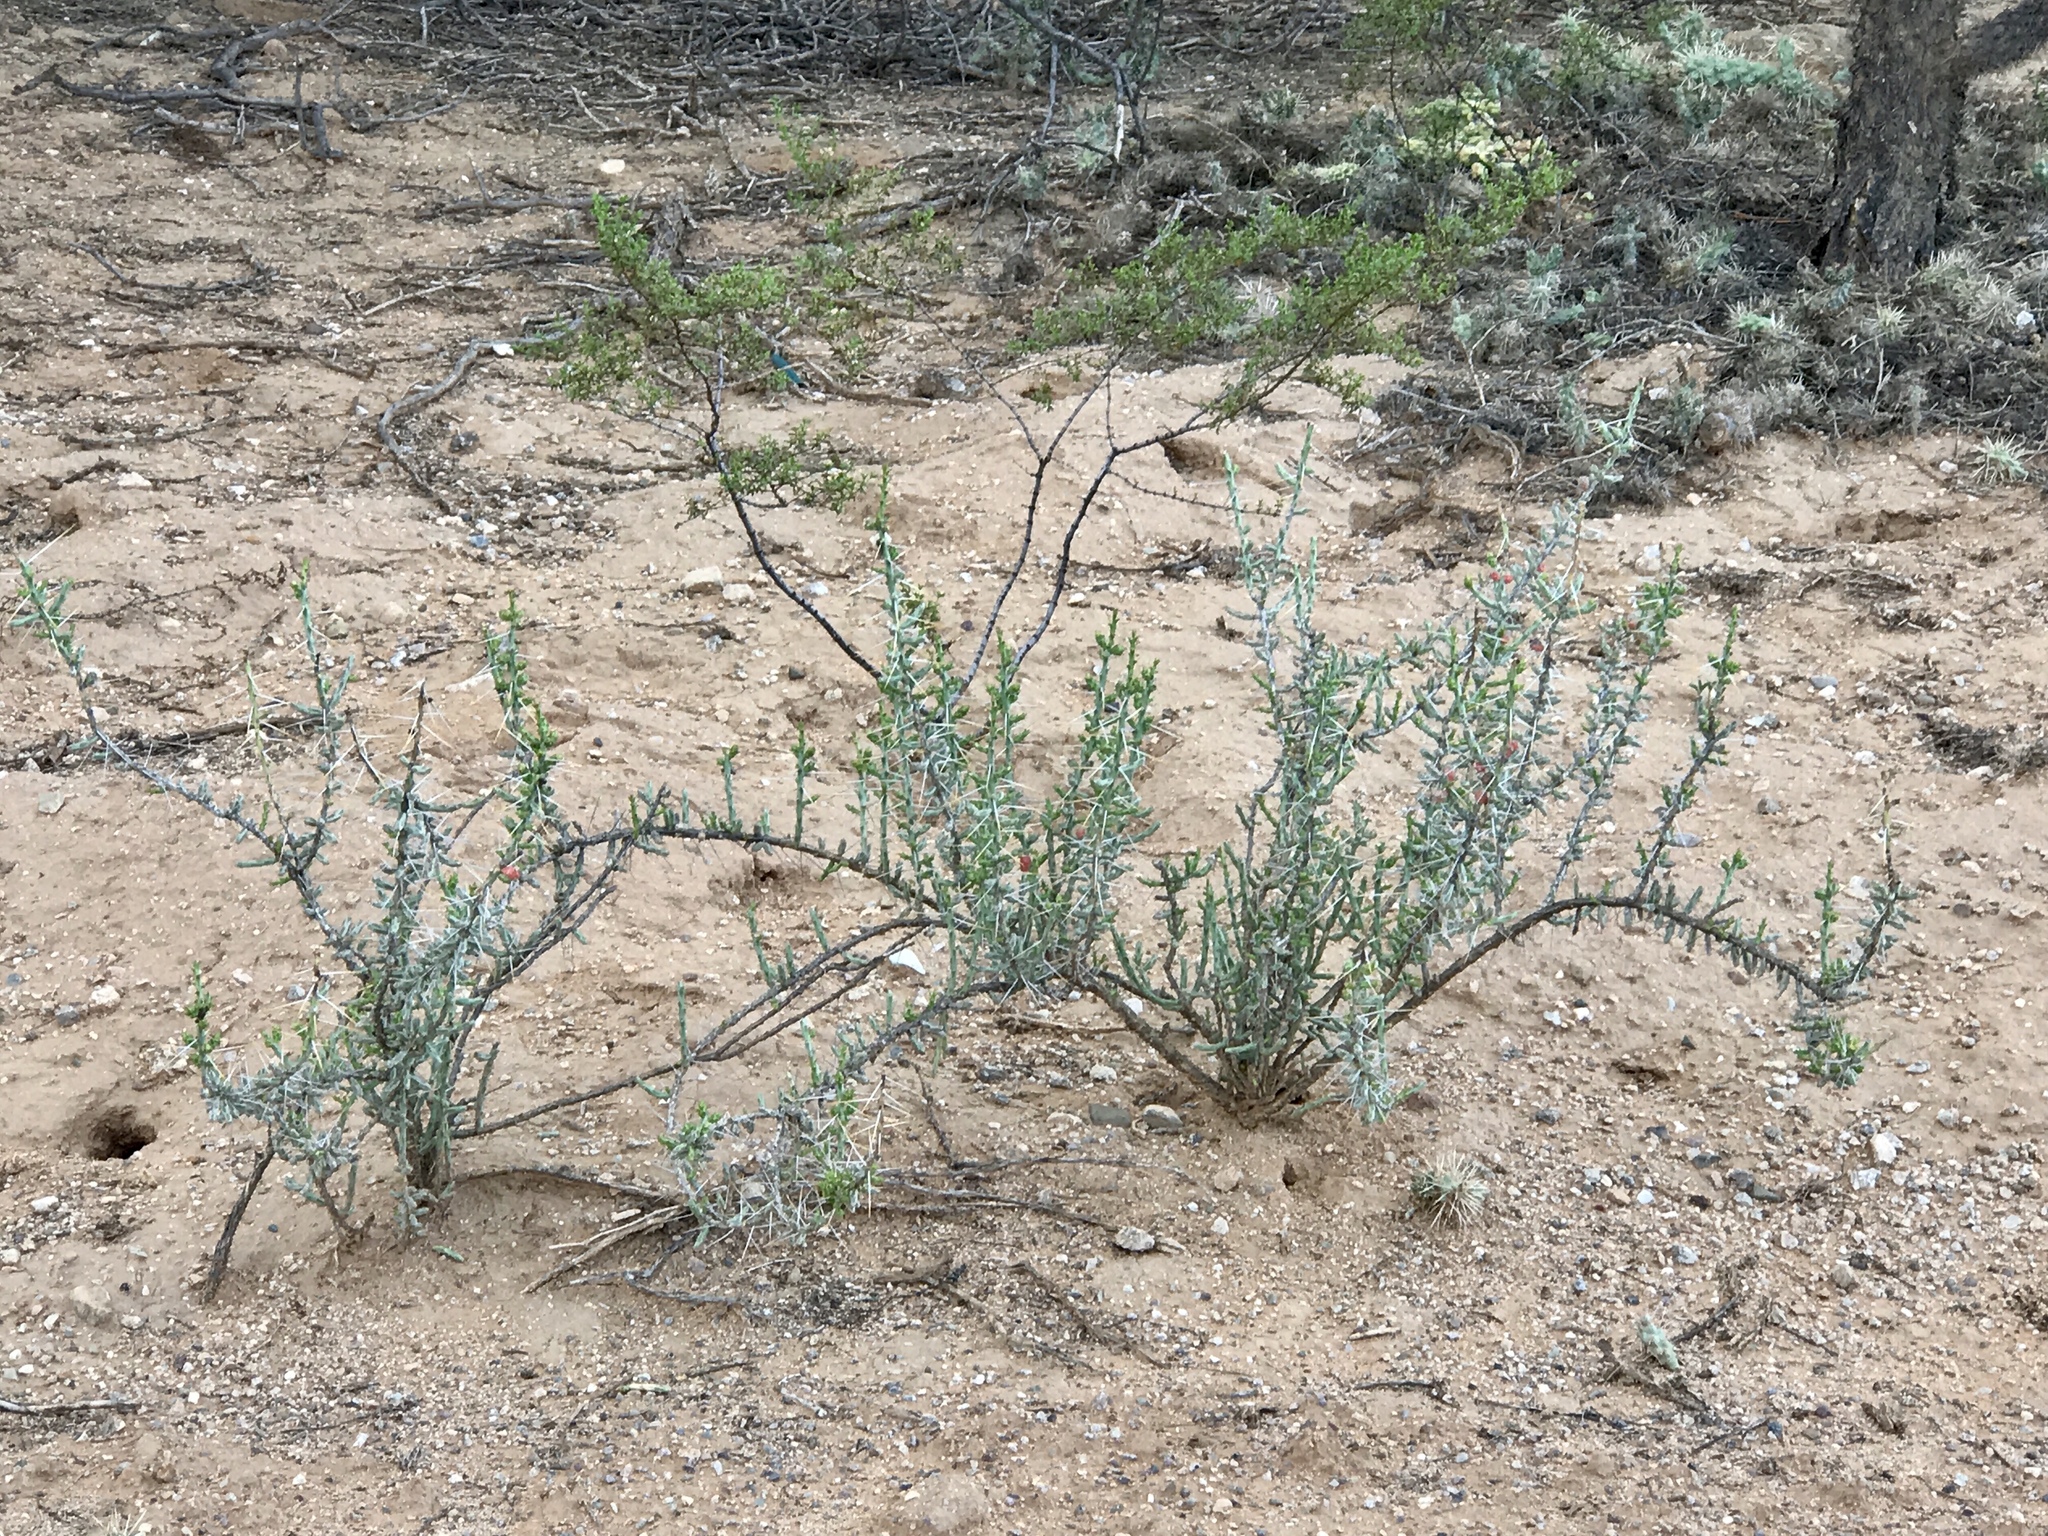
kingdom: Plantae
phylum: Tracheophyta
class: Magnoliopsida
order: Caryophyllales
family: Cactaceae
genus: Cylindropuntia
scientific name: Cylindropuntia leptocaulis
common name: Christmas cactus
